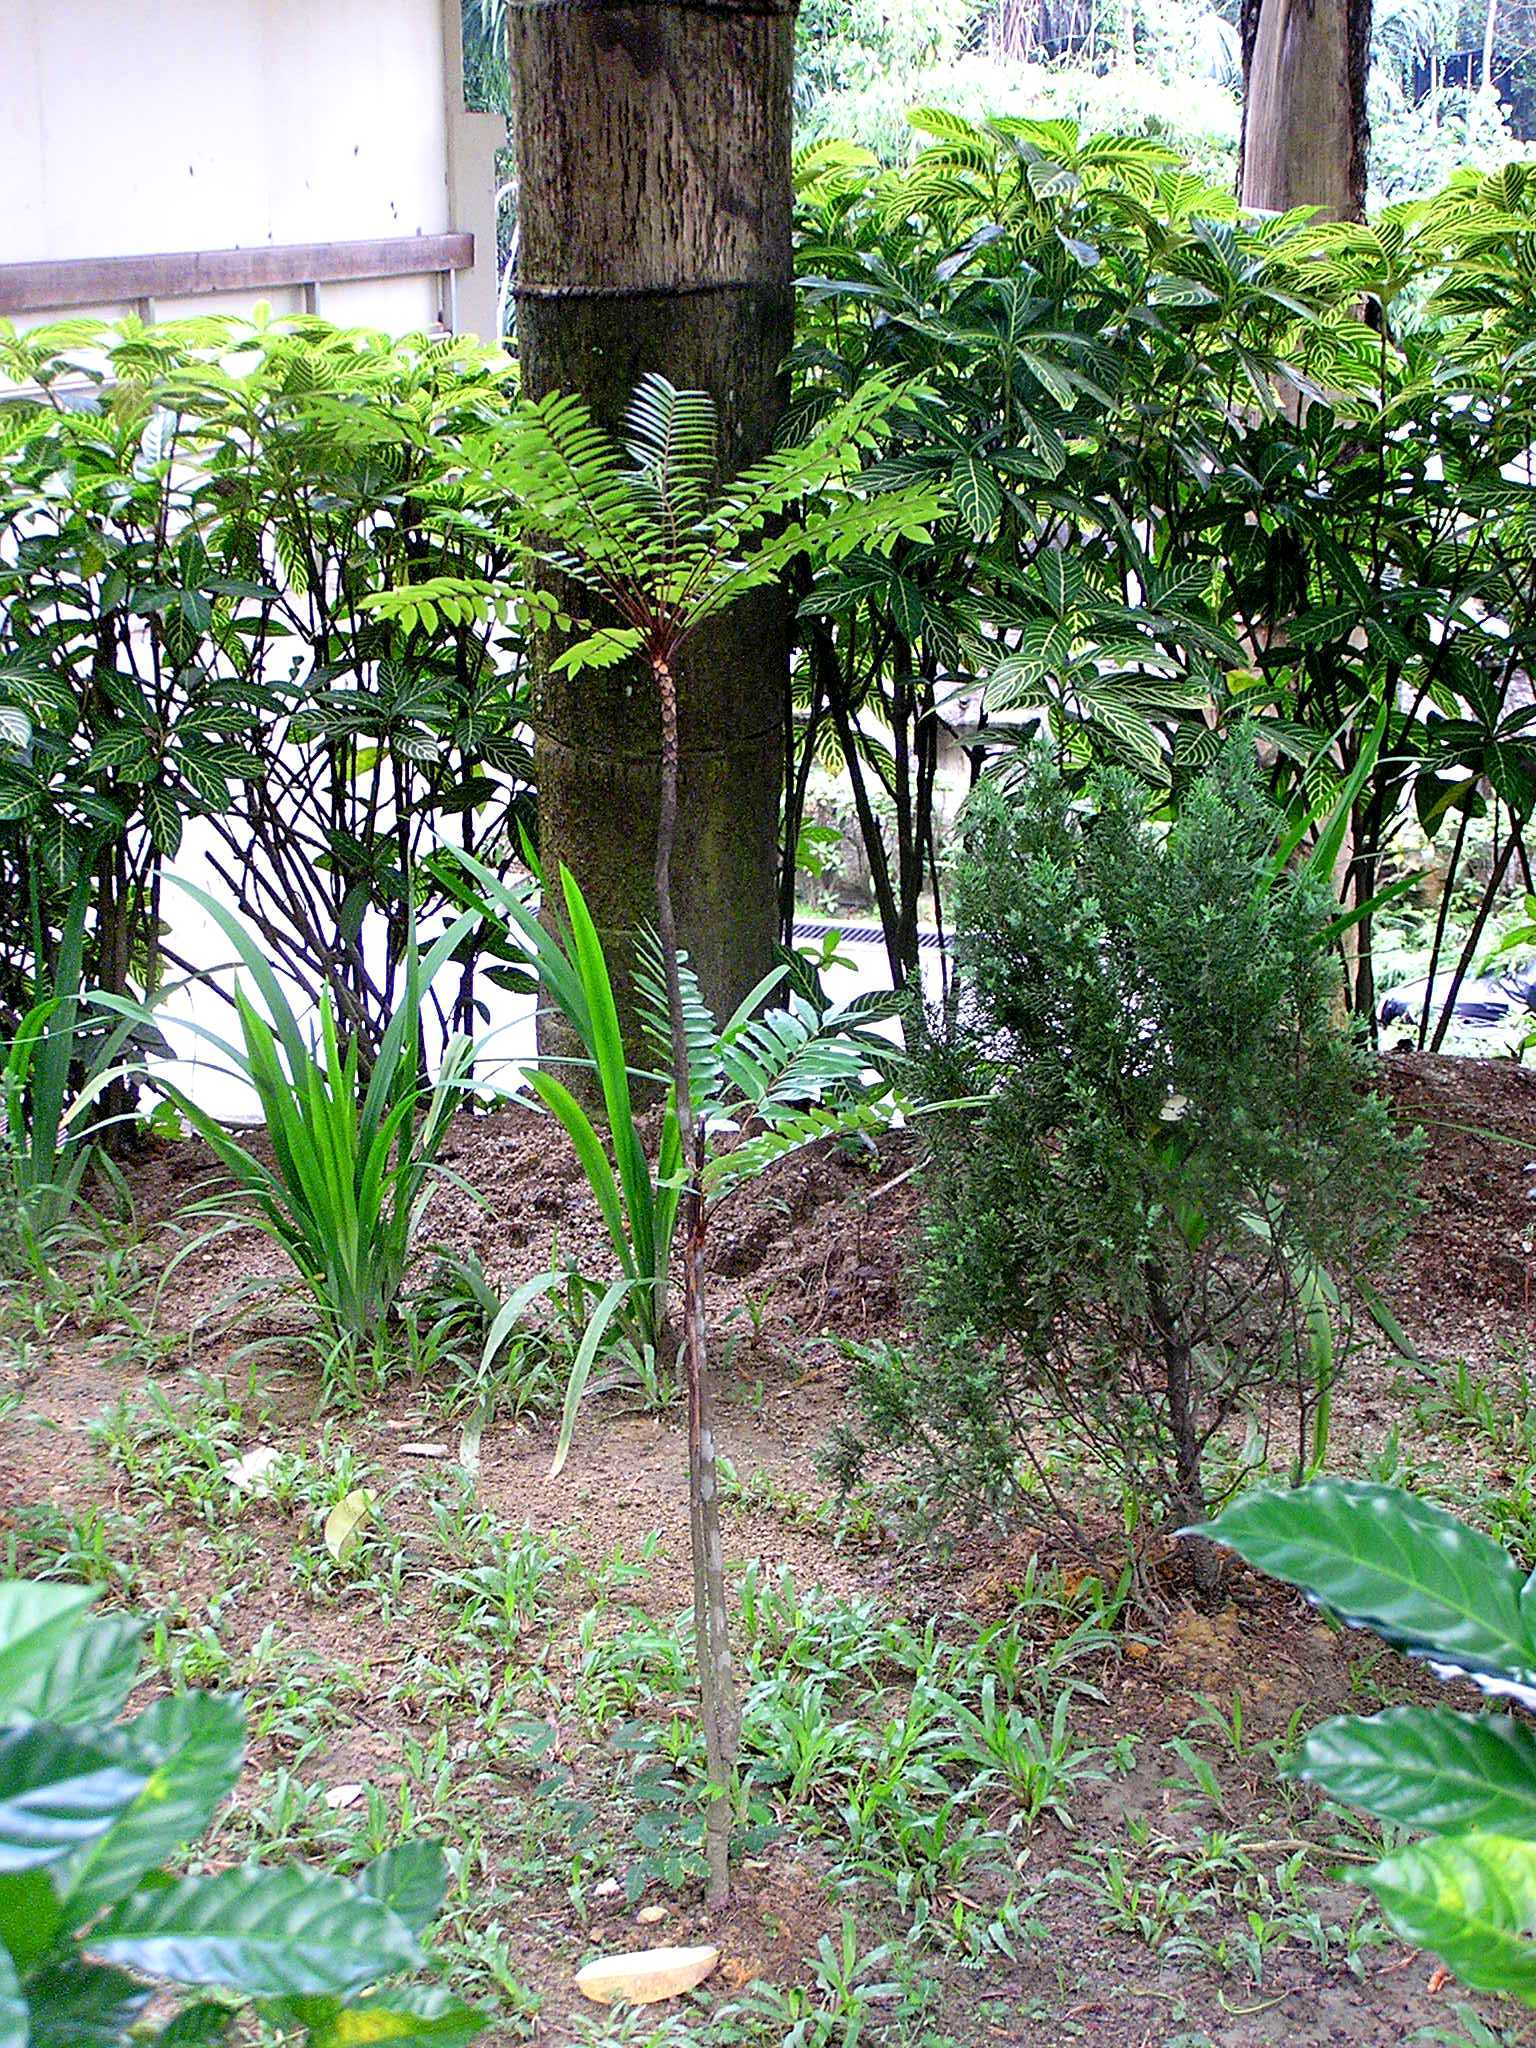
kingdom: Plantae
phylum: Tracheophyta
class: Magnoliopsida
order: Sapindales
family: Simaroubaceae
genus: Eurycoma
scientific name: Eurycoma longifolia
